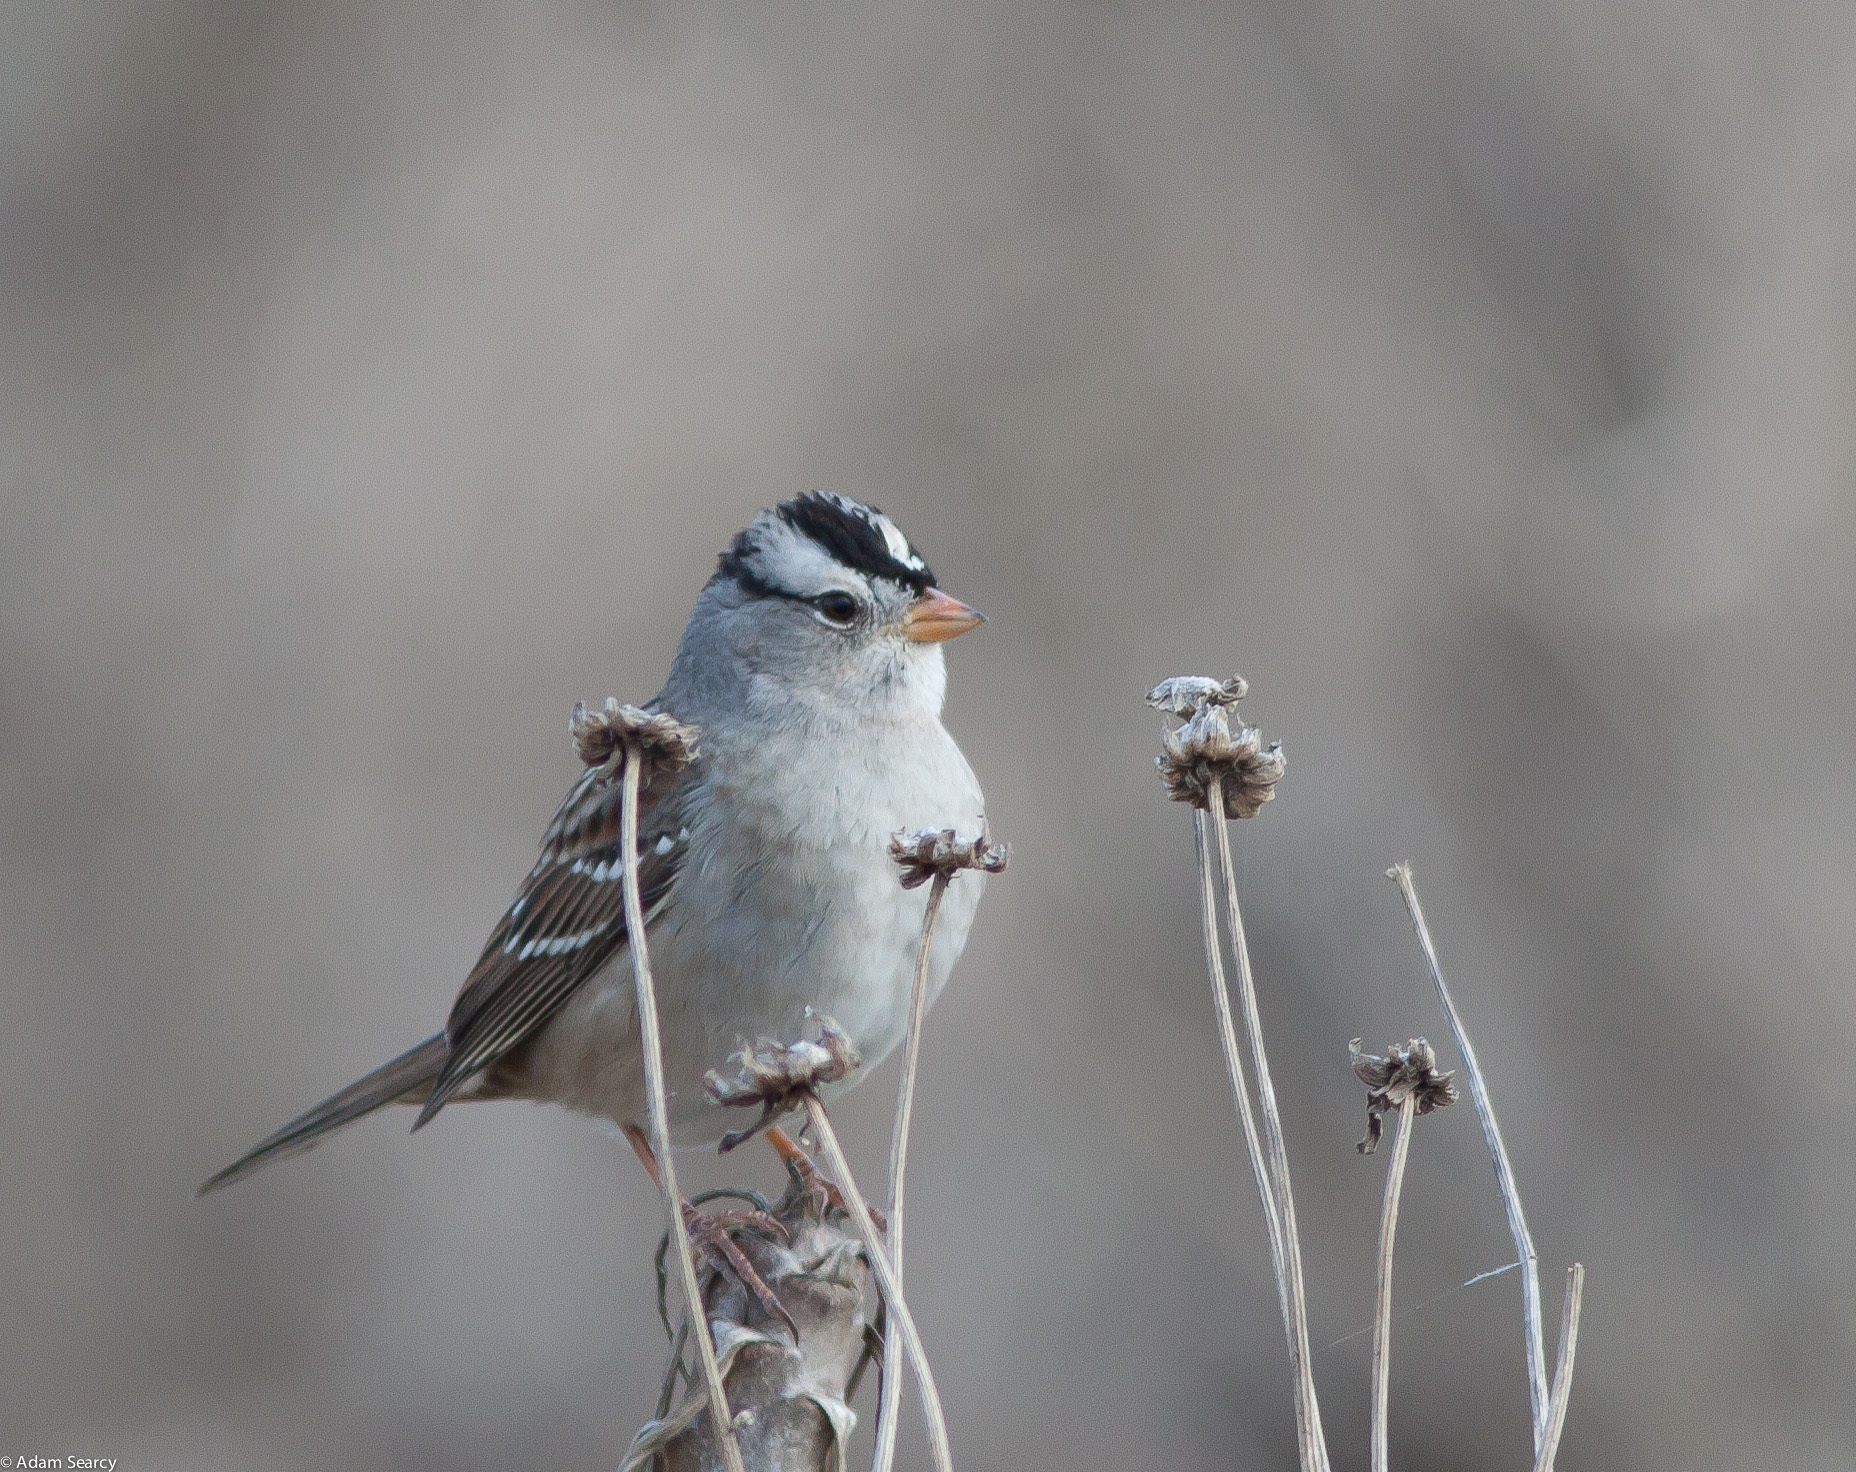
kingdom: Animalia
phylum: Chordata
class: Aves
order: Passeriformes
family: Passerellidae
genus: Zonotrichia
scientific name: Zonotrichia leucophrys
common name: White-crowned sparrow
